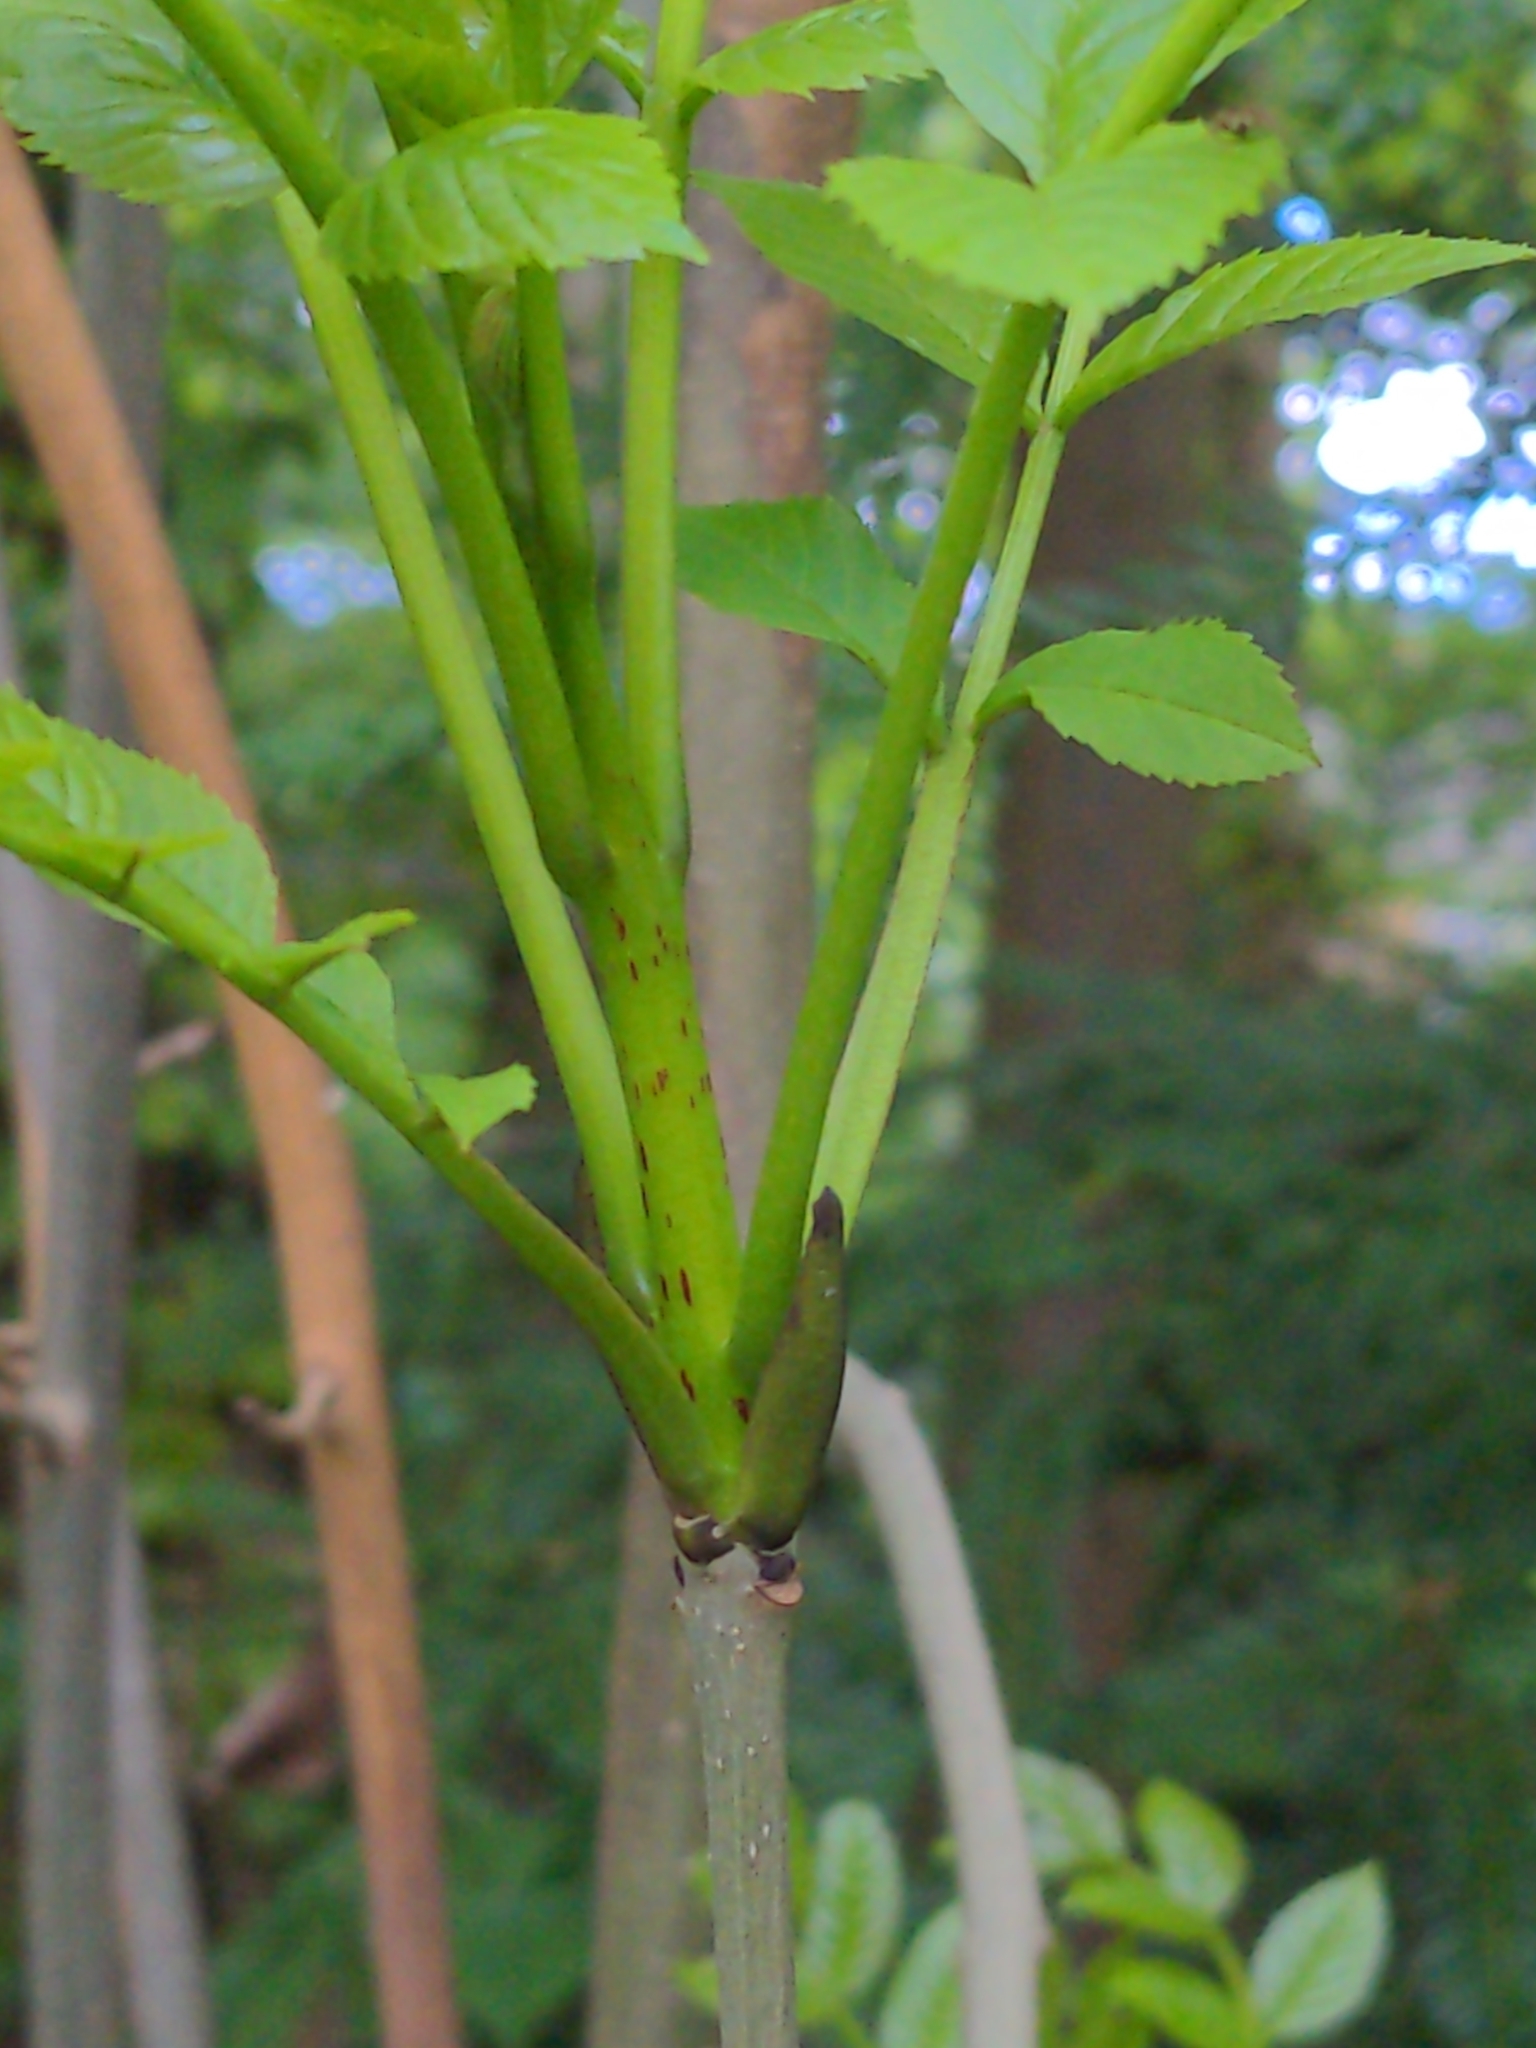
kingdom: Plantae
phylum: Tracheophyta
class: Magnoliopsida
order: Lamiales
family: Oleaceae
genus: Fraxinus
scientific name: Fraxinus excelsior
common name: European ash
